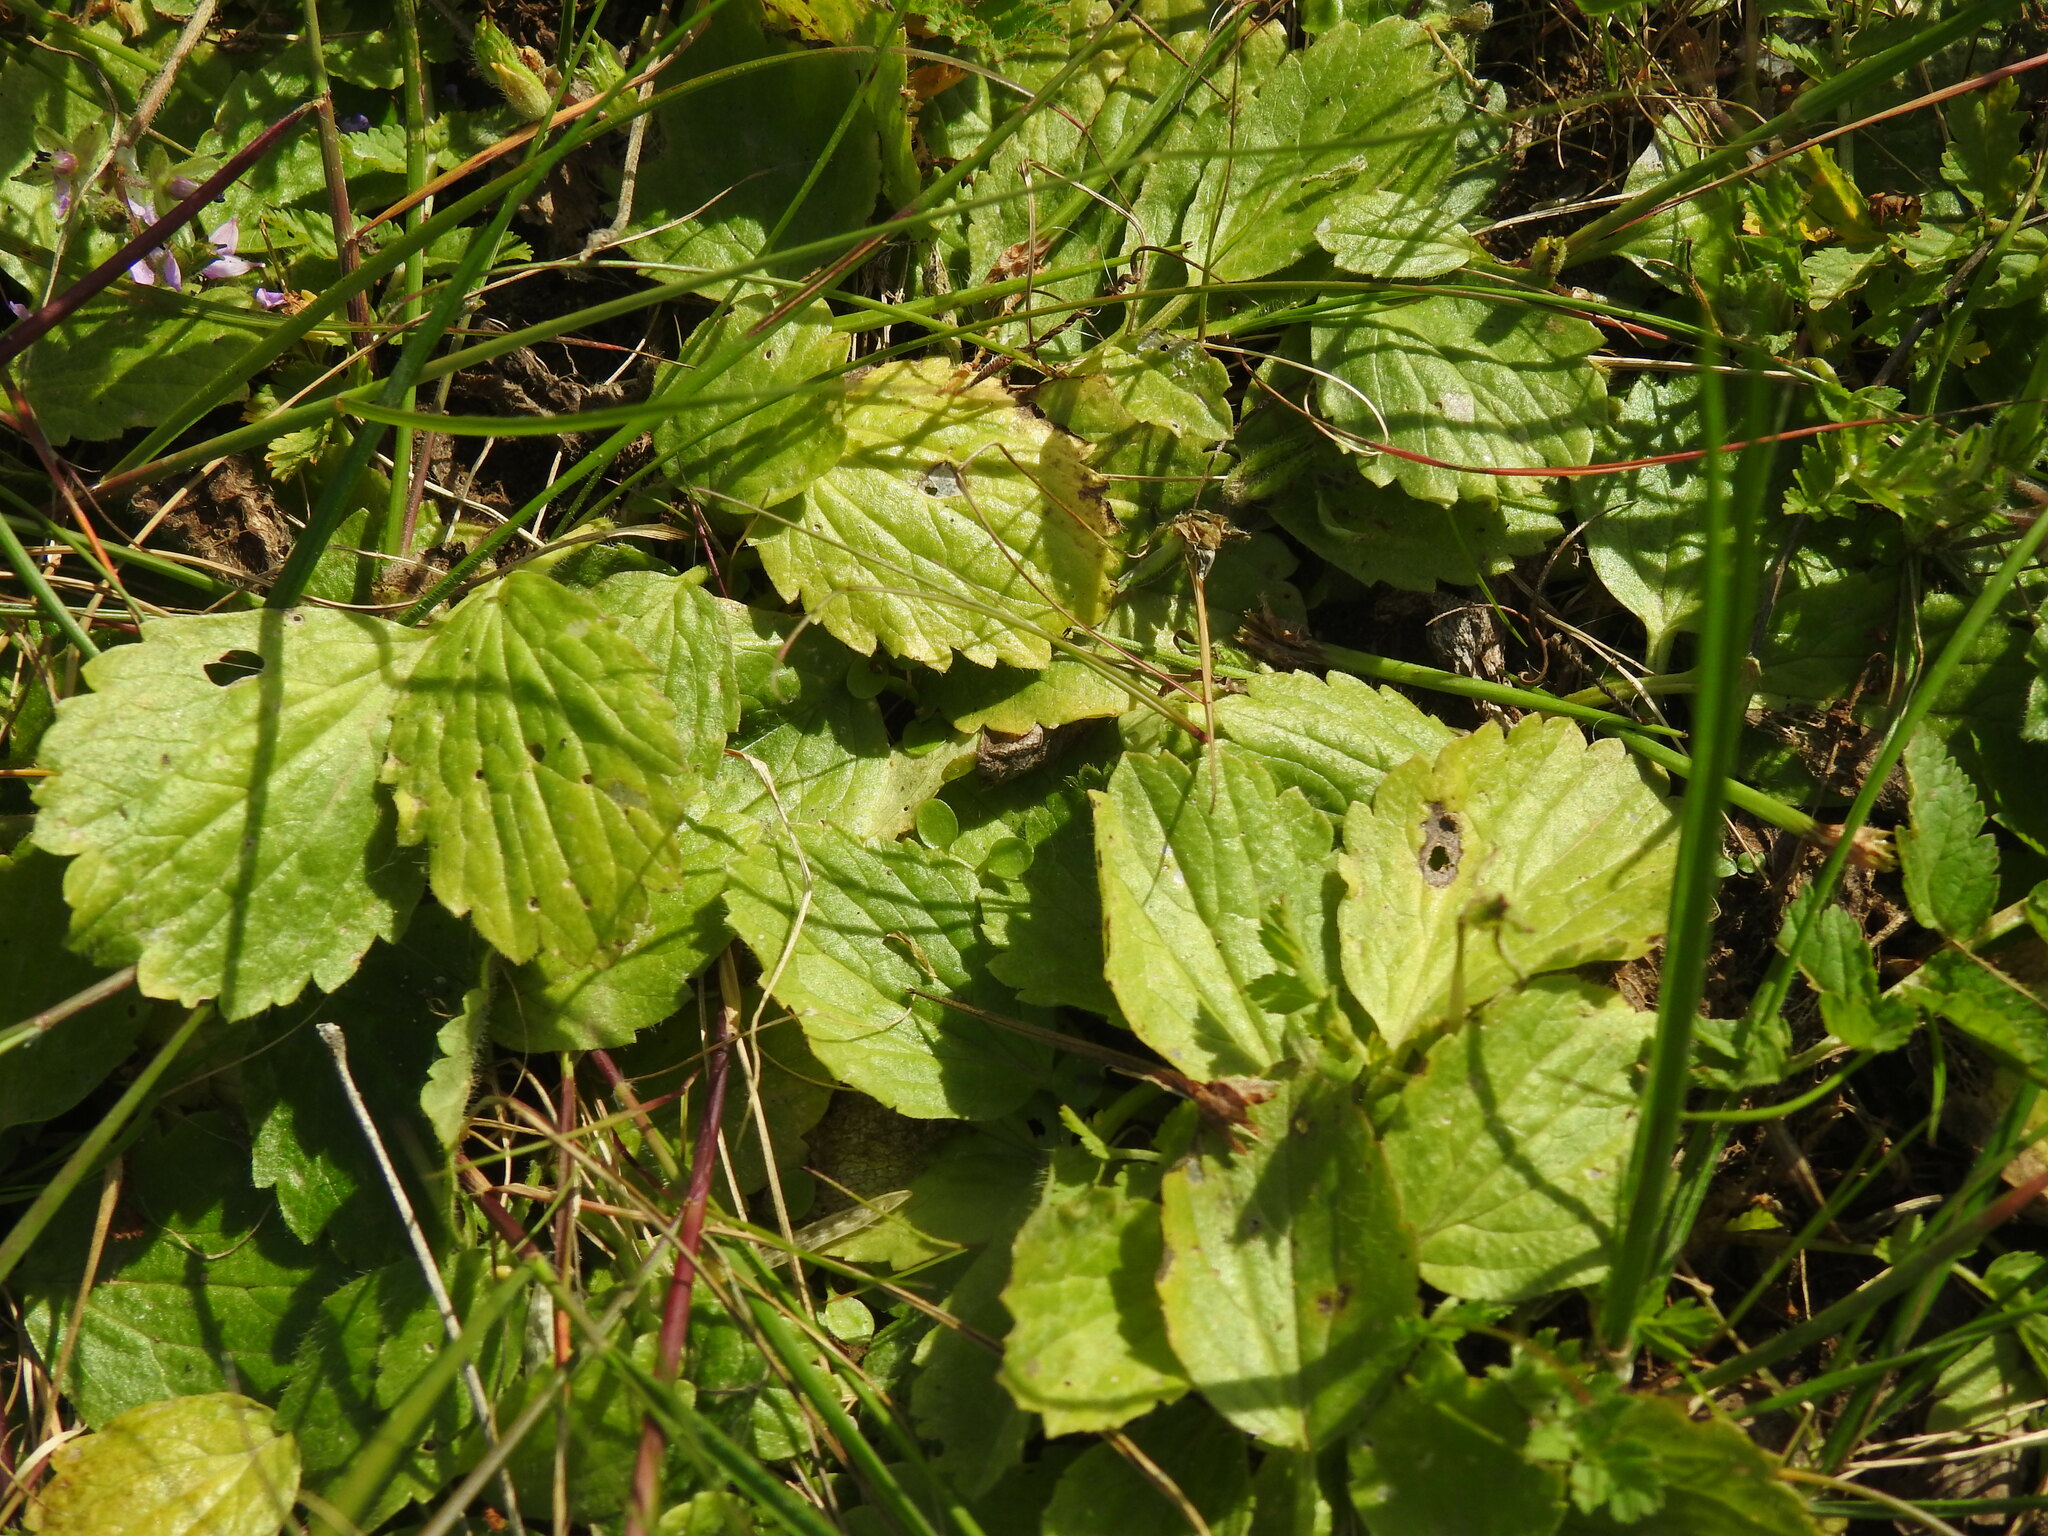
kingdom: Plantae
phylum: Tracheophyta
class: Magnoliopsida
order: Ranunculales
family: Ranunculaceae
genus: Ranunculus
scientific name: Ranunculus bullatus
